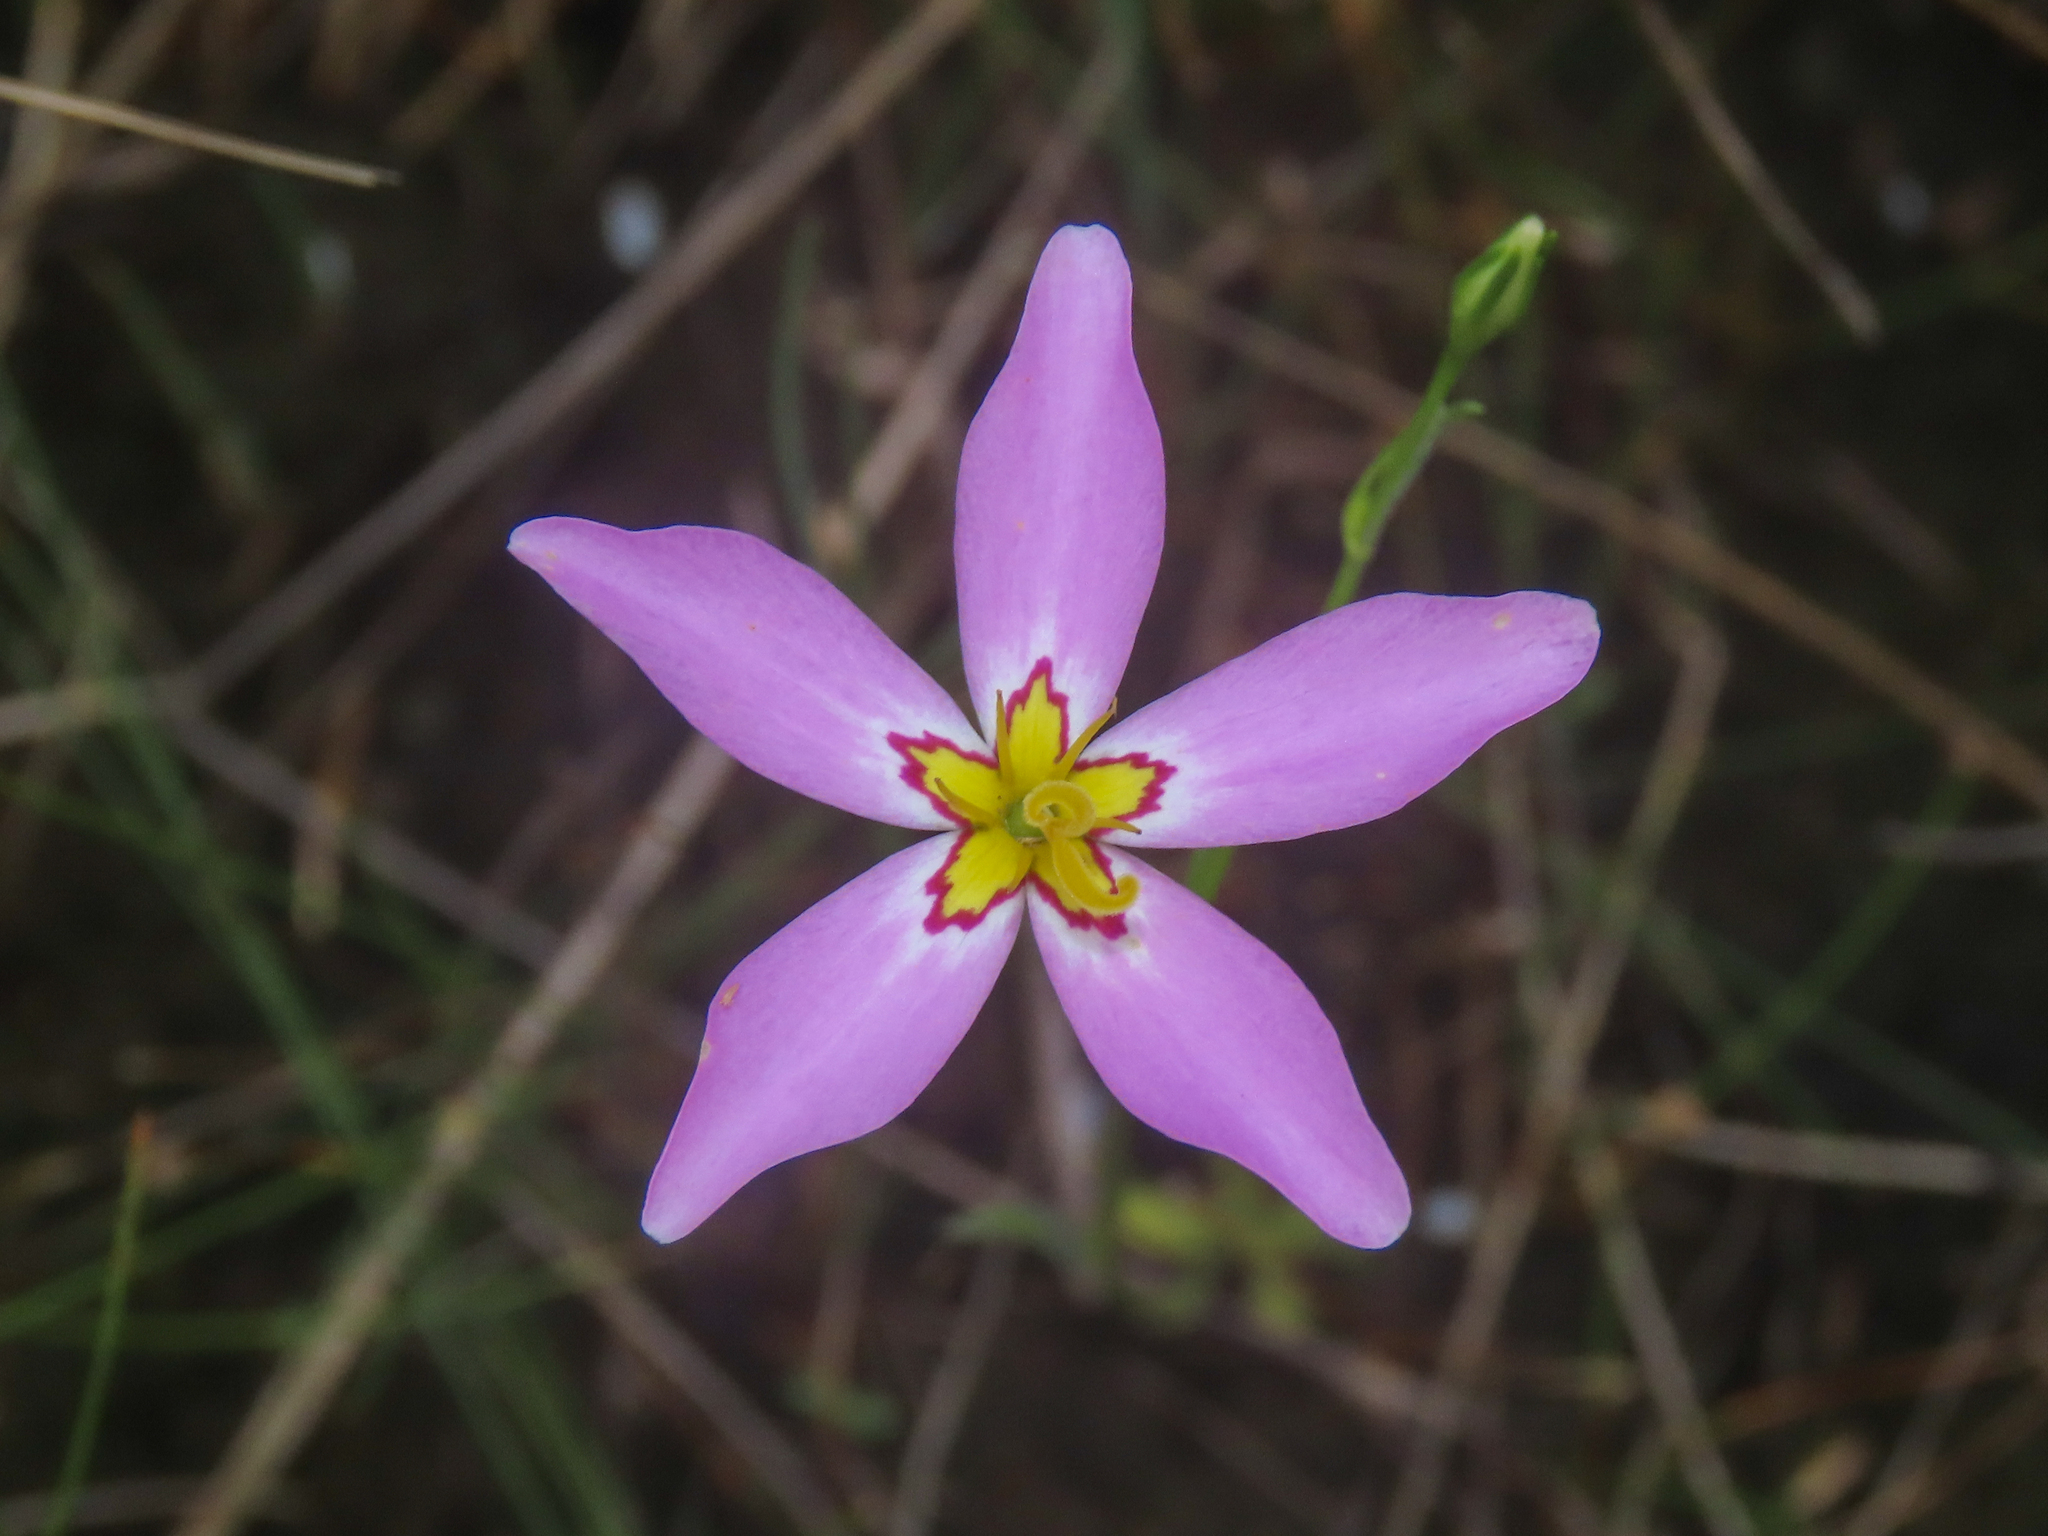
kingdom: Plantae
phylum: Tracheophyta
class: Magnoliopsida
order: Gentianales
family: Gentianaceae
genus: Sabatia
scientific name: Sabatia stellaris
